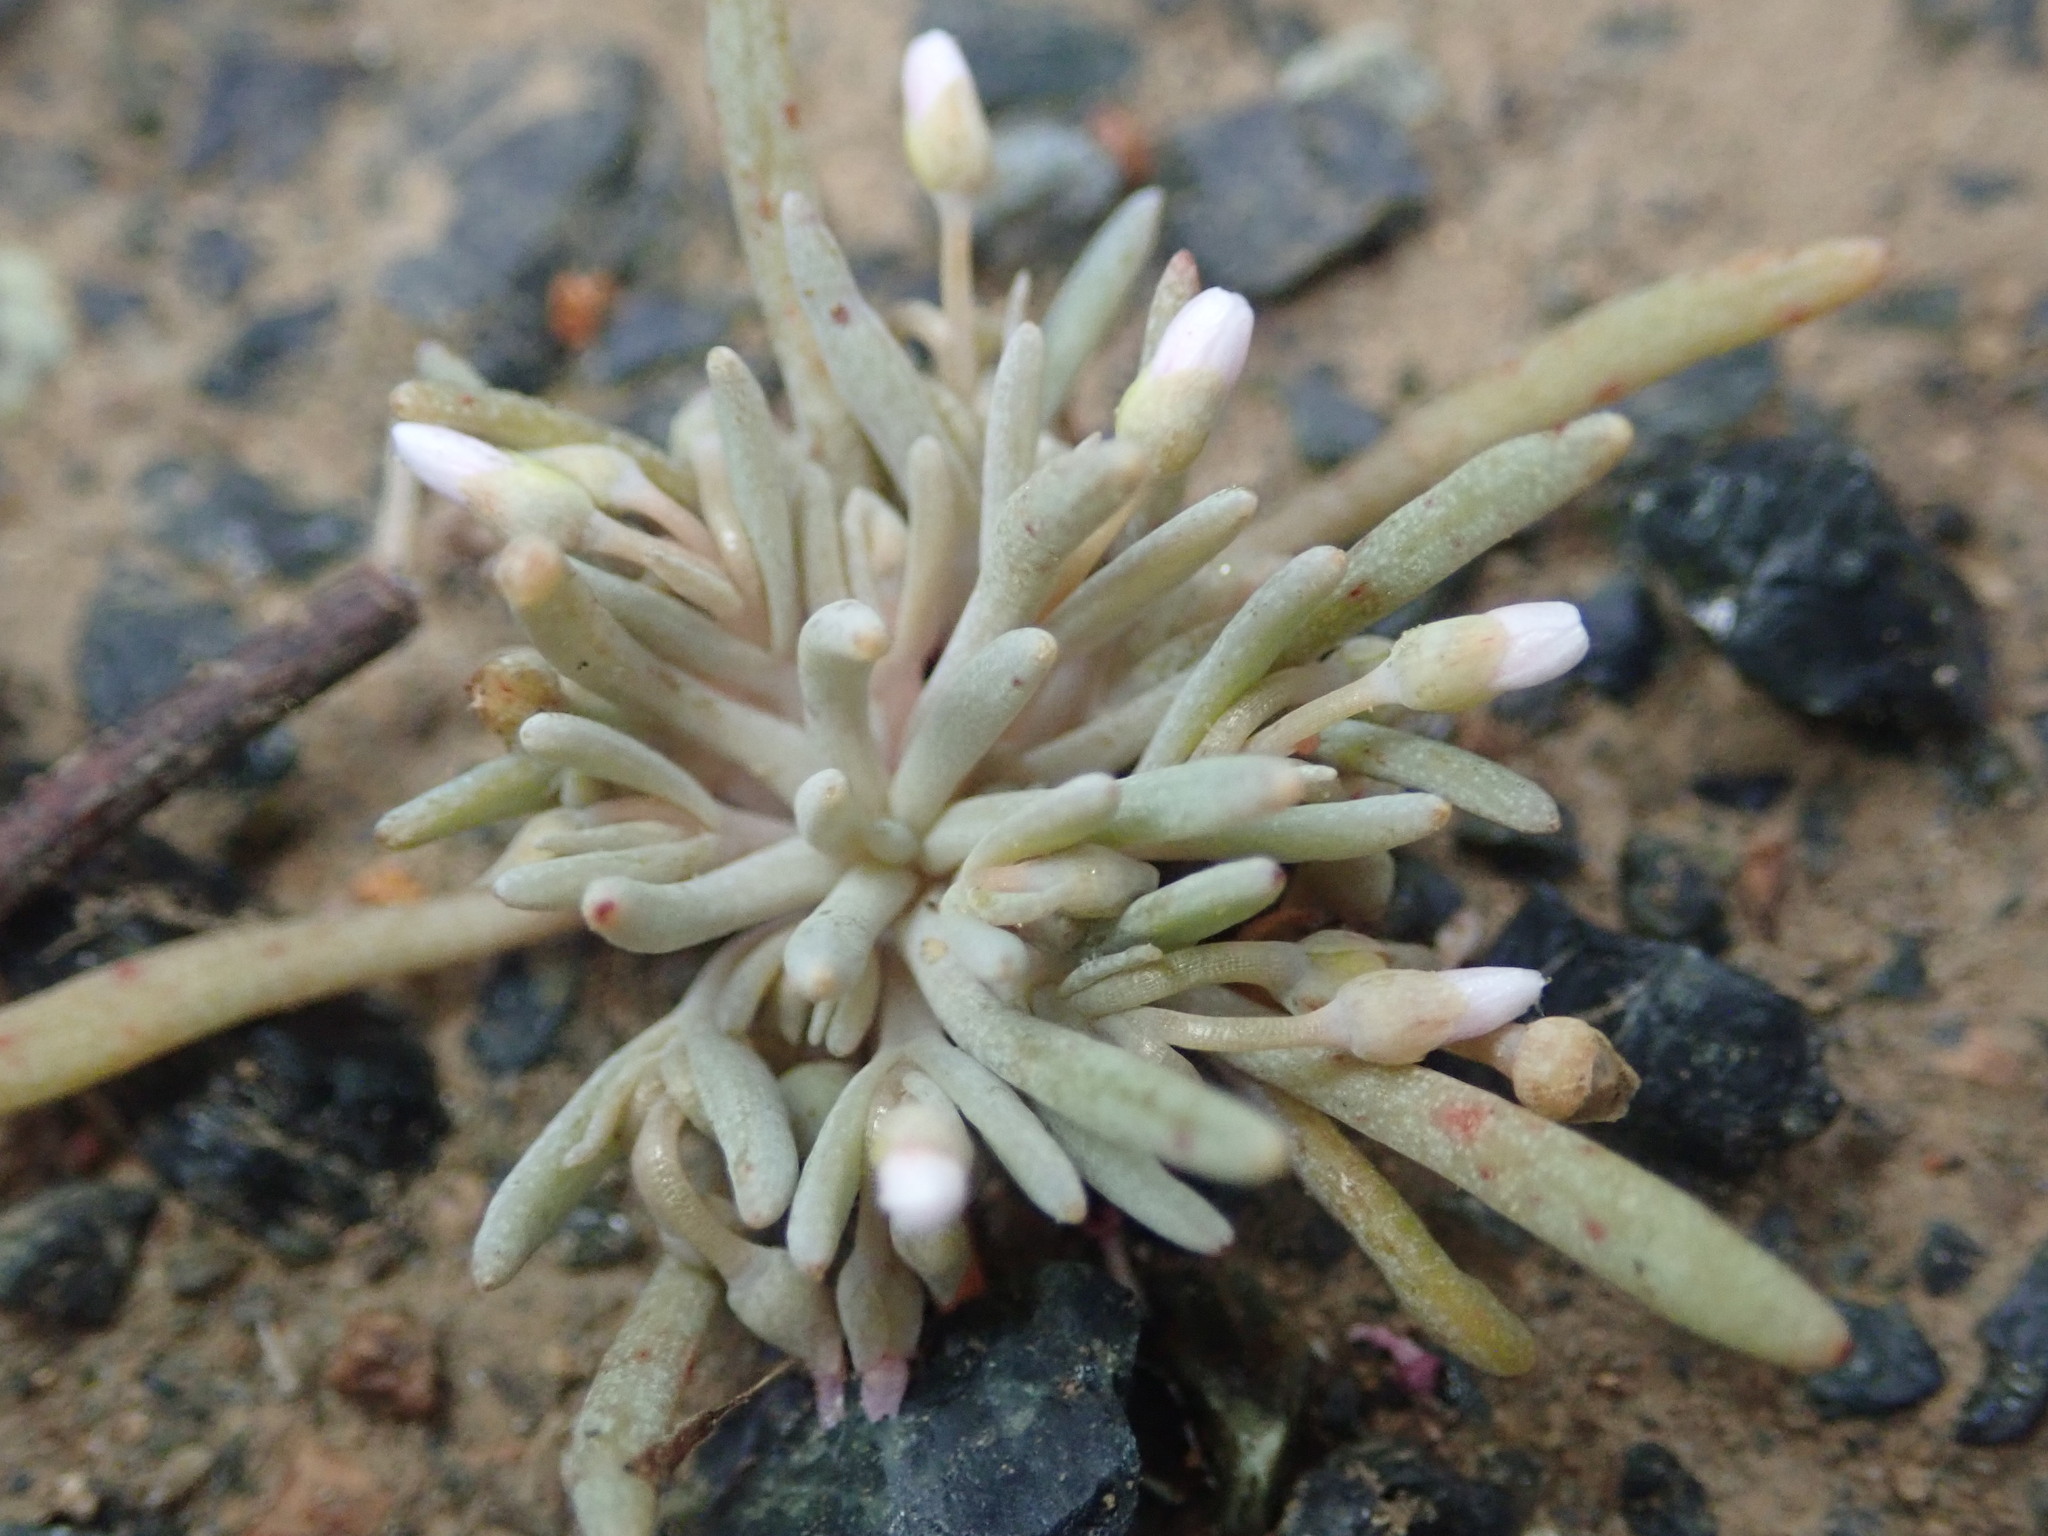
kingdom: Plantae
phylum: Tracheophyta
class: Magnoliopsida
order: Caryophyllales
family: Montiaceae
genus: Claytonia
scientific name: Claytonia exigua
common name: Pale spring beauty
